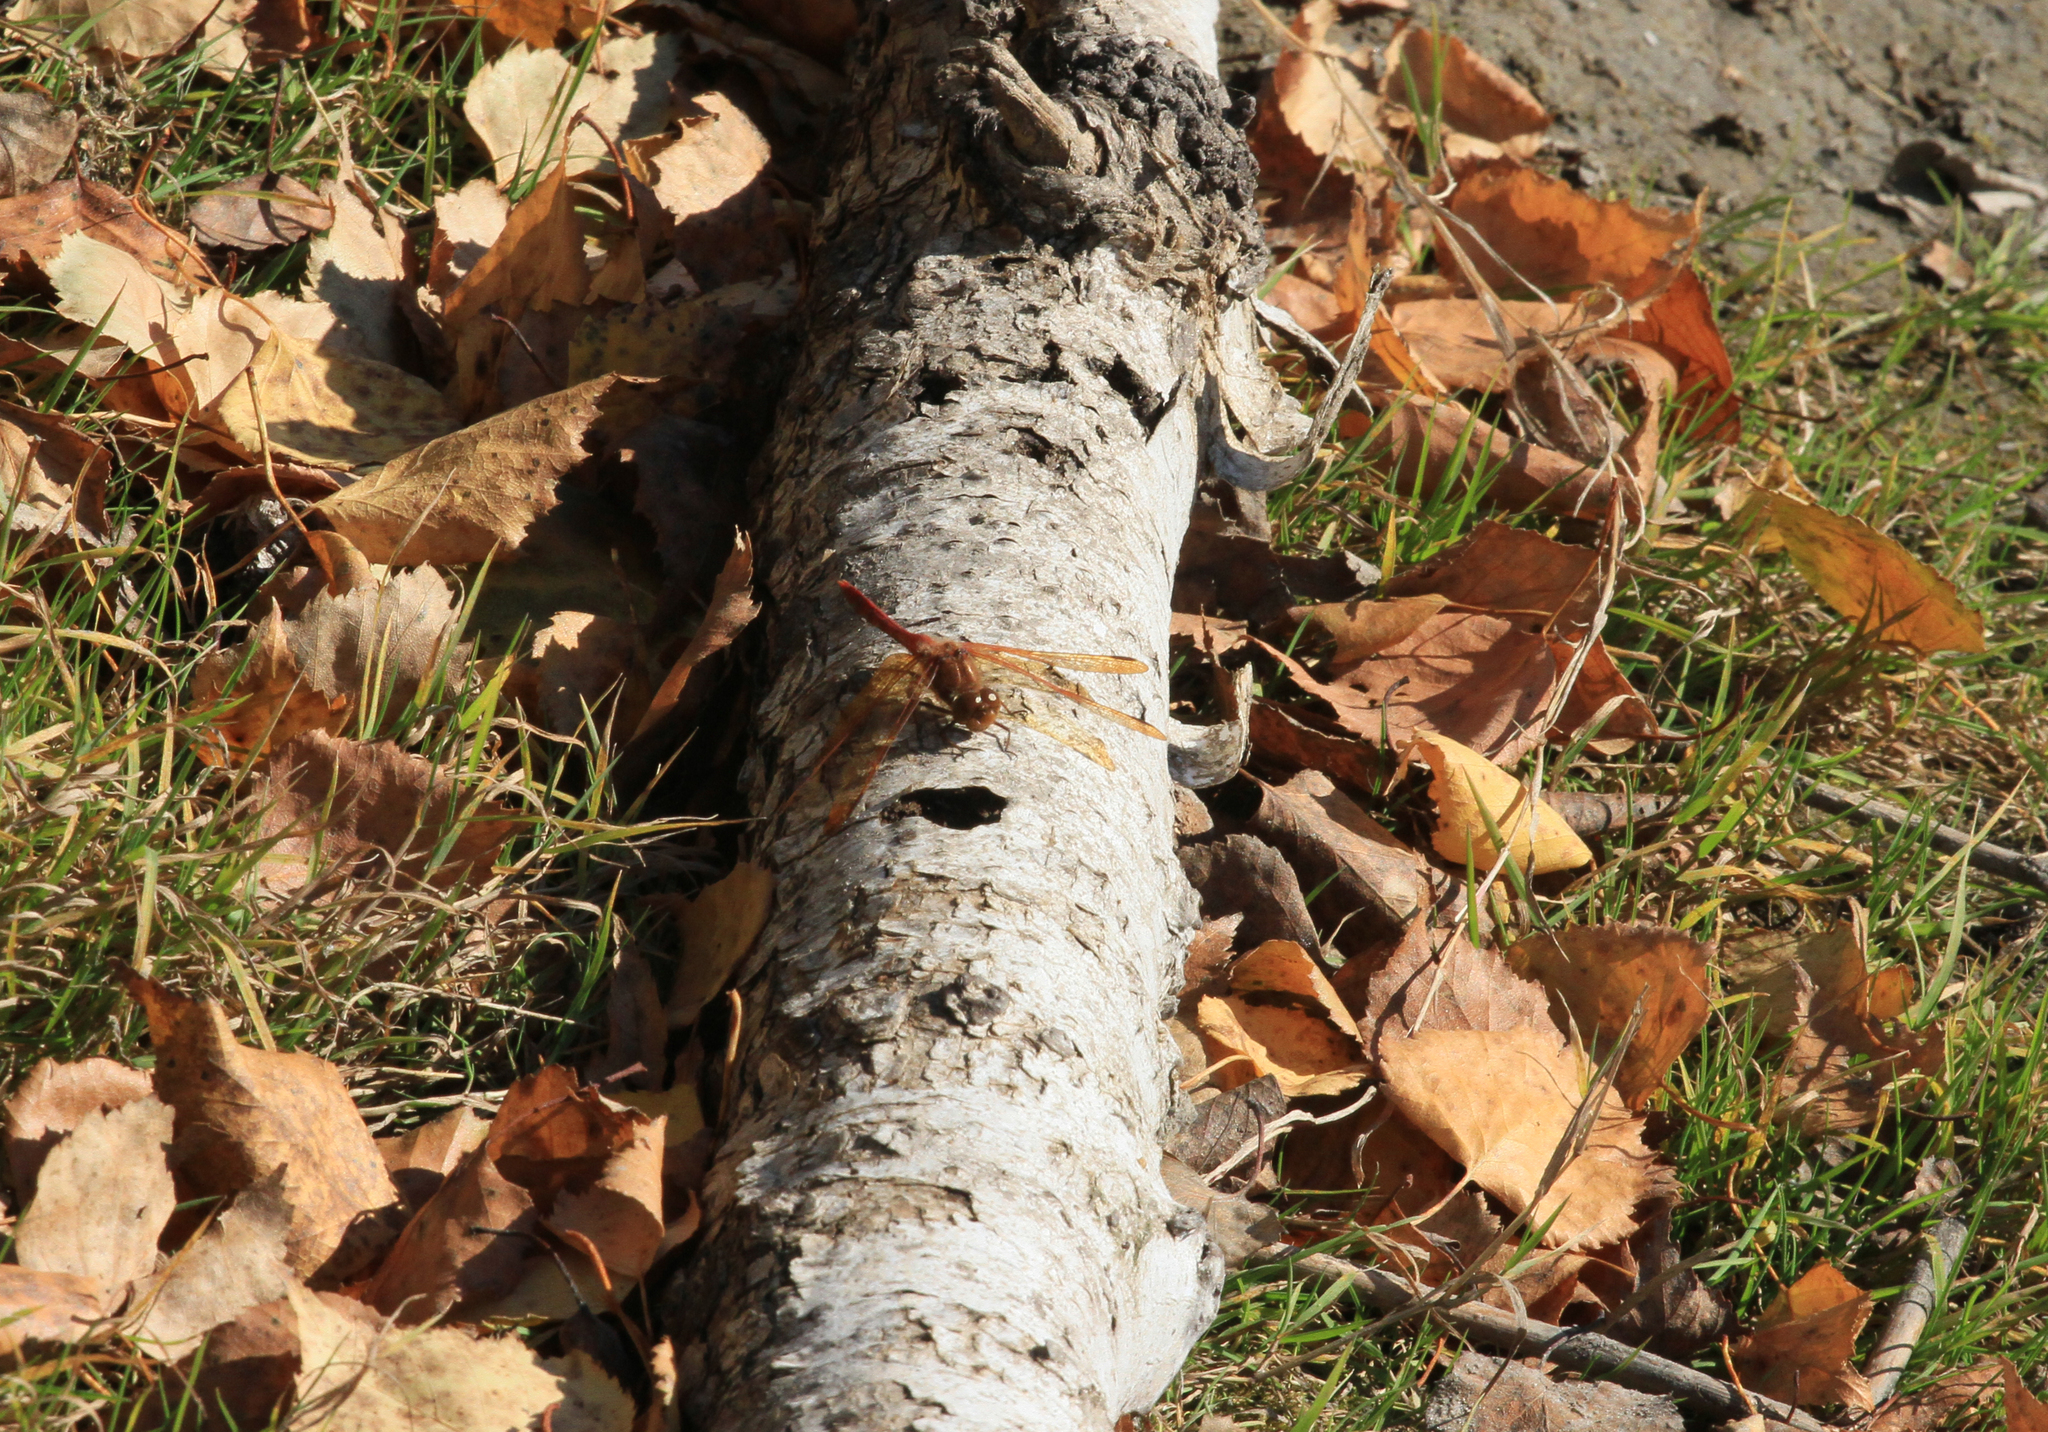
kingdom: Animalia
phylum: Arthropoda
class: Insecta
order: Odonata
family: Libellulidae
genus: Sympetrum
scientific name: Sympetrum croceolum
